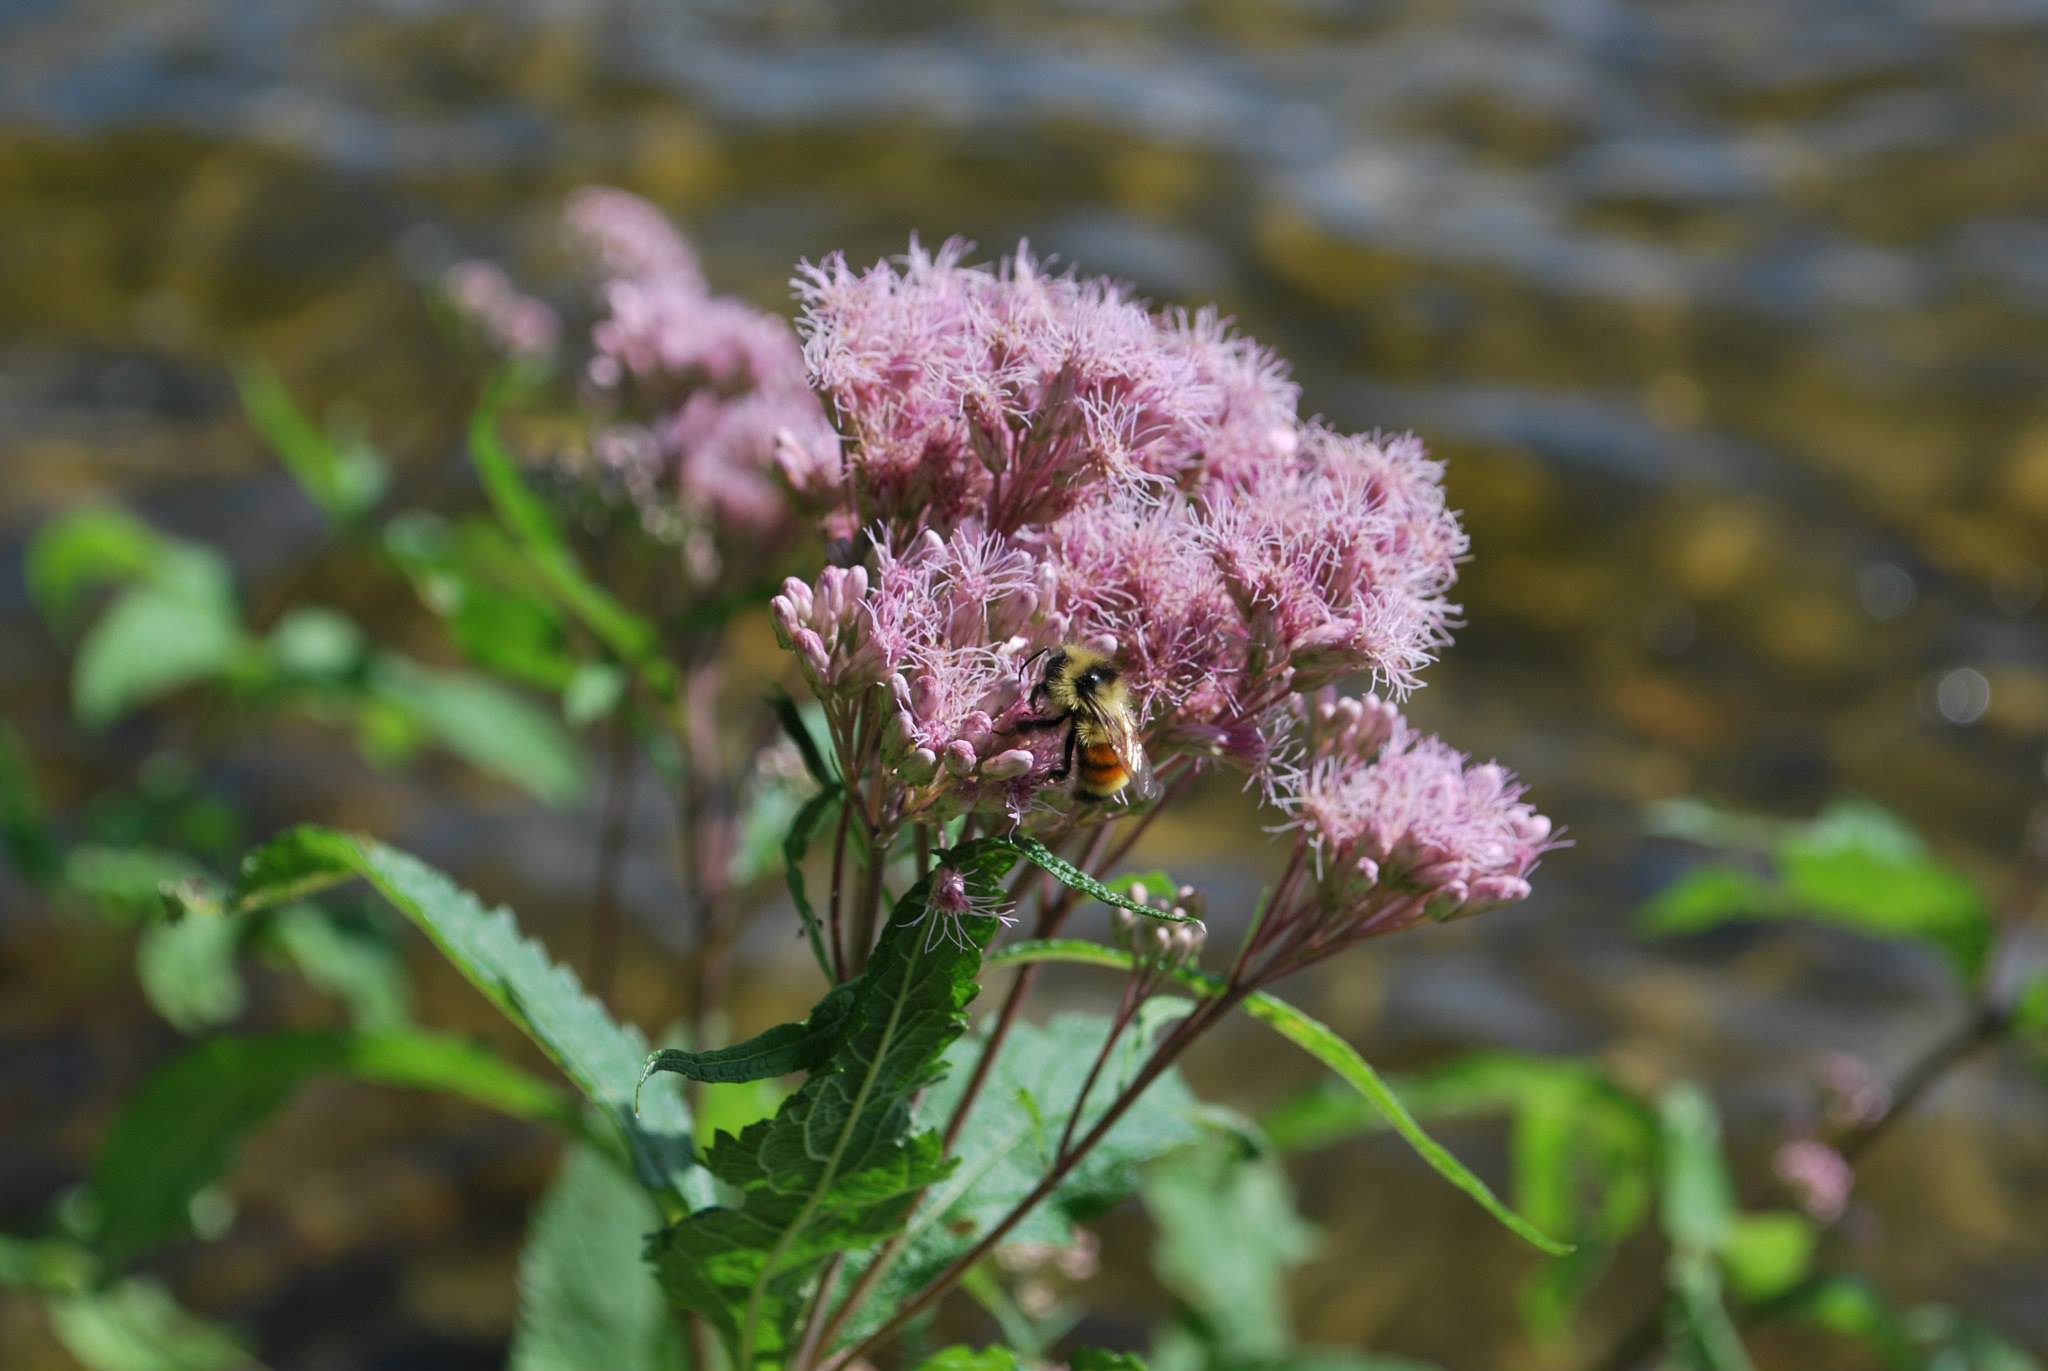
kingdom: Animalia
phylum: Arthropoda
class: Insecta
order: Hymenoptera
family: Apidae
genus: Bombus
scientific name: Bombus ternarius
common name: Tri-colored bumble bee
